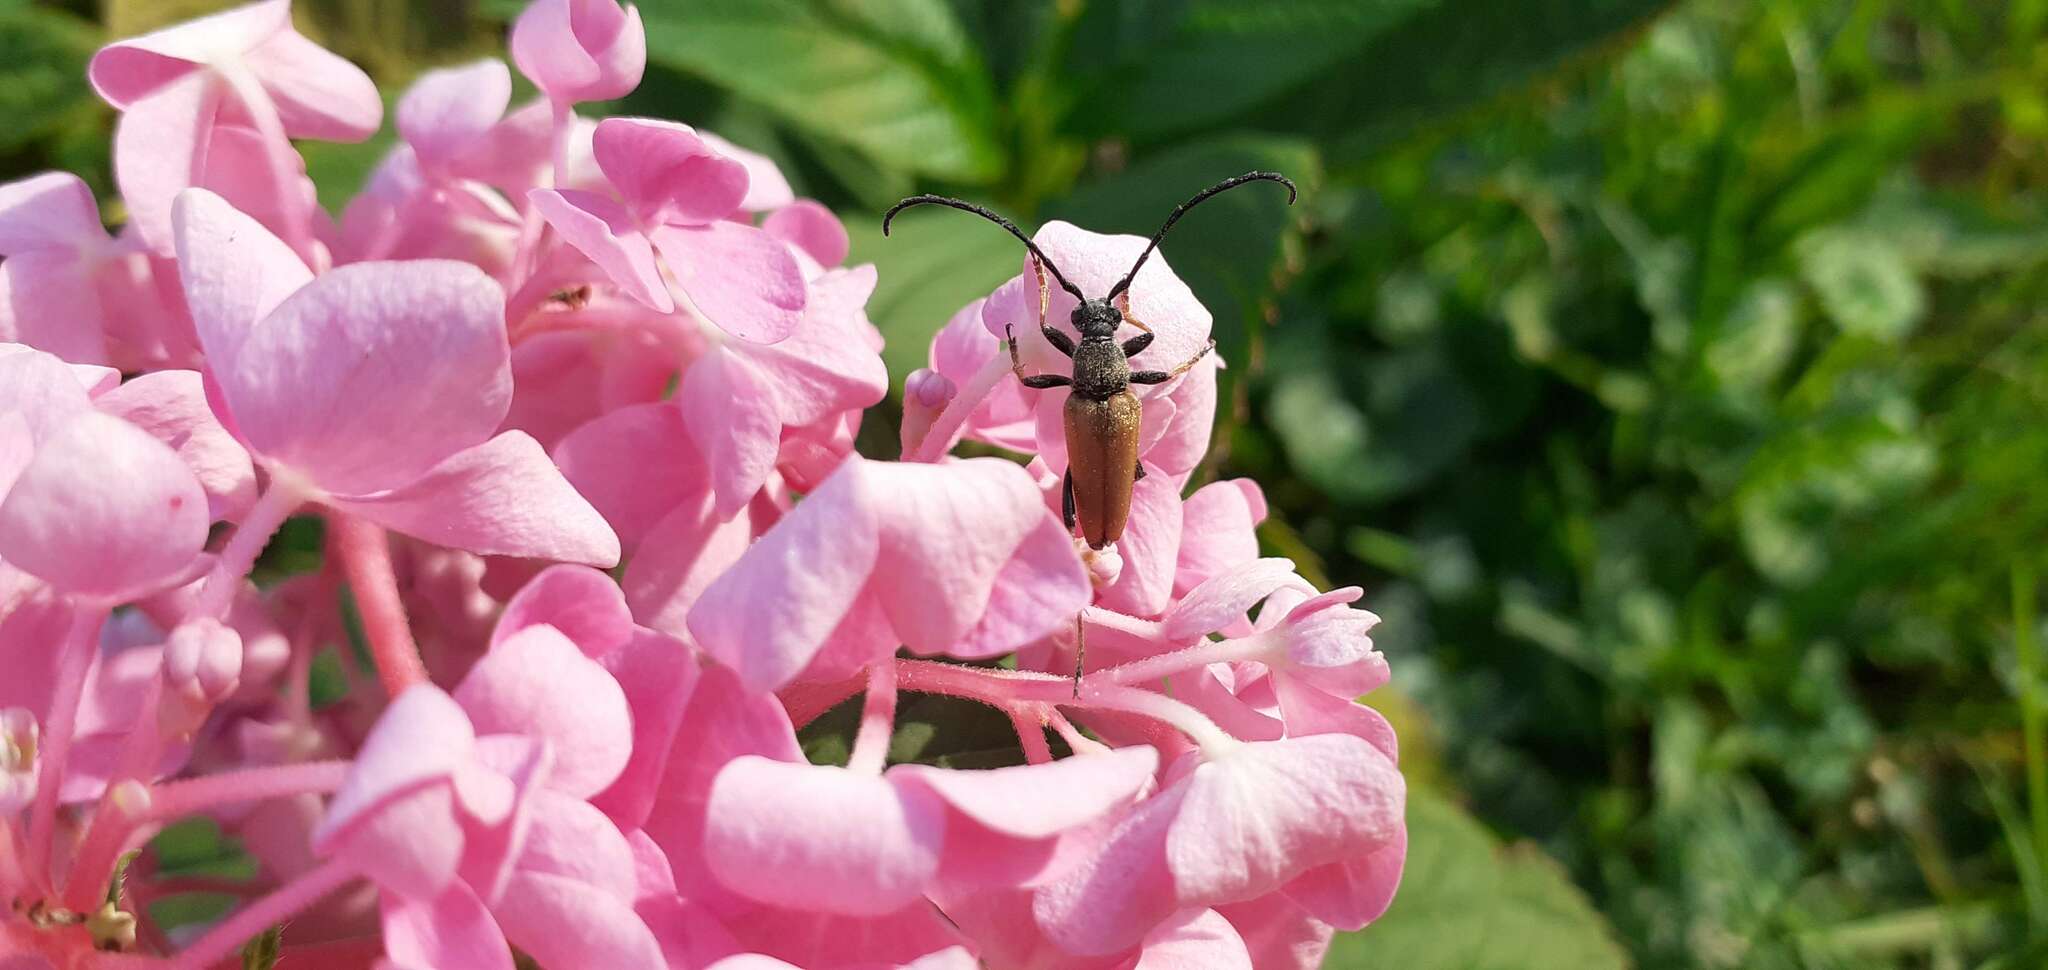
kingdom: Animalia
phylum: Arthropoda
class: Insecta
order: Coleoptera
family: Cerambycidae
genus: Stictoleptura
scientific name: Stictoleptura rubra
